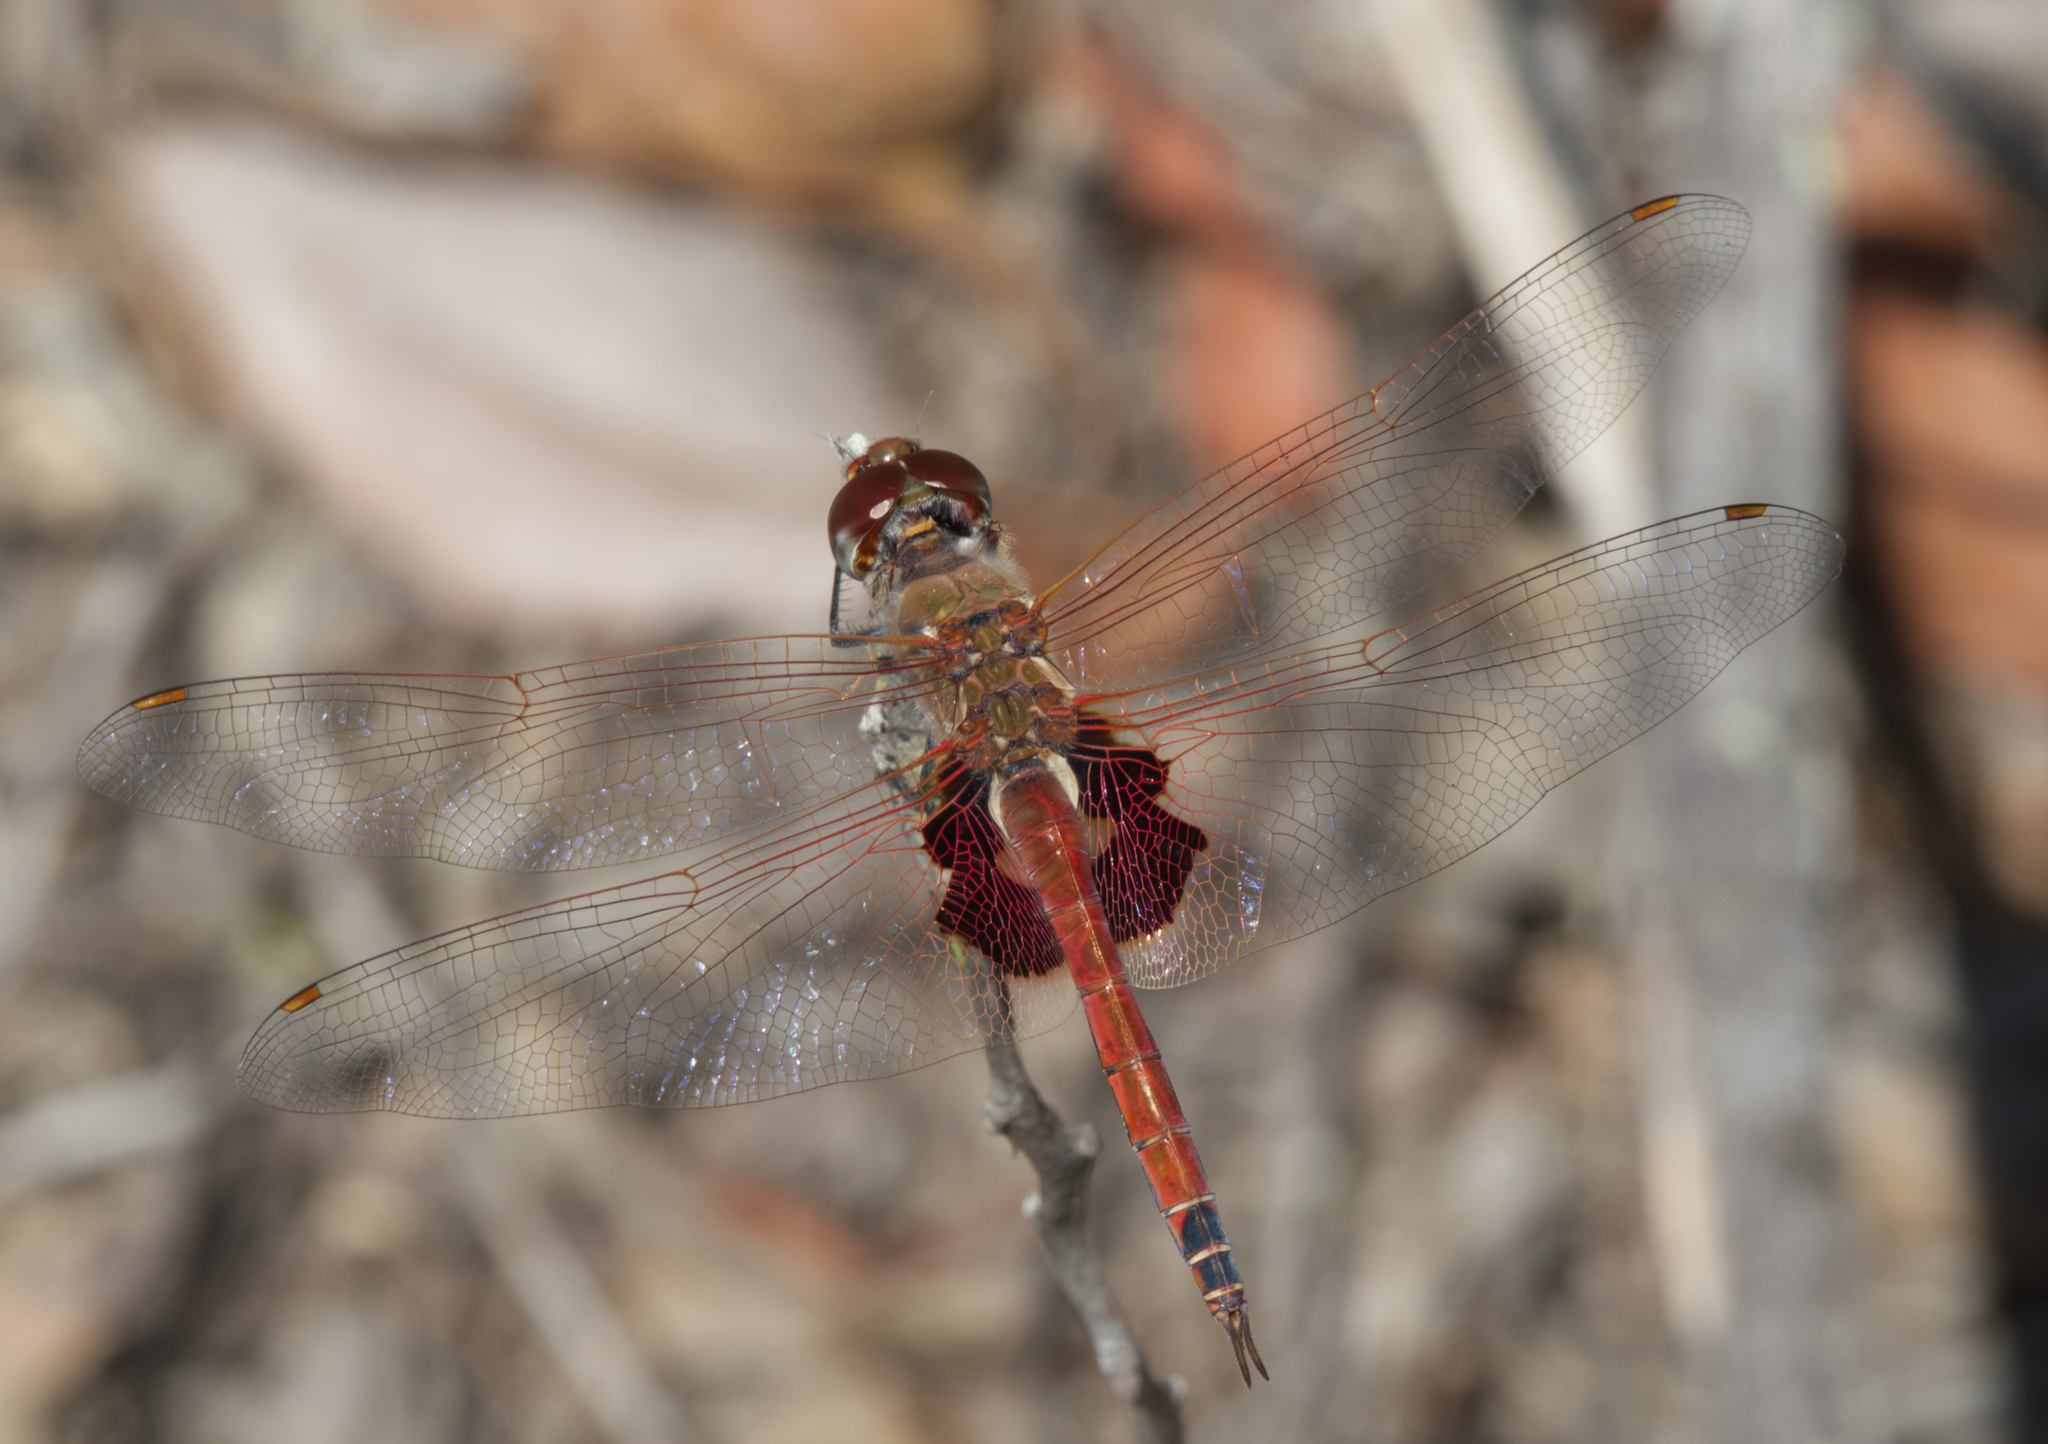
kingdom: Animalia
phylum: Arthropoda
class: Insecta
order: Odonata
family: Libellulidae
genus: Tramea
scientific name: Tramea loewii
